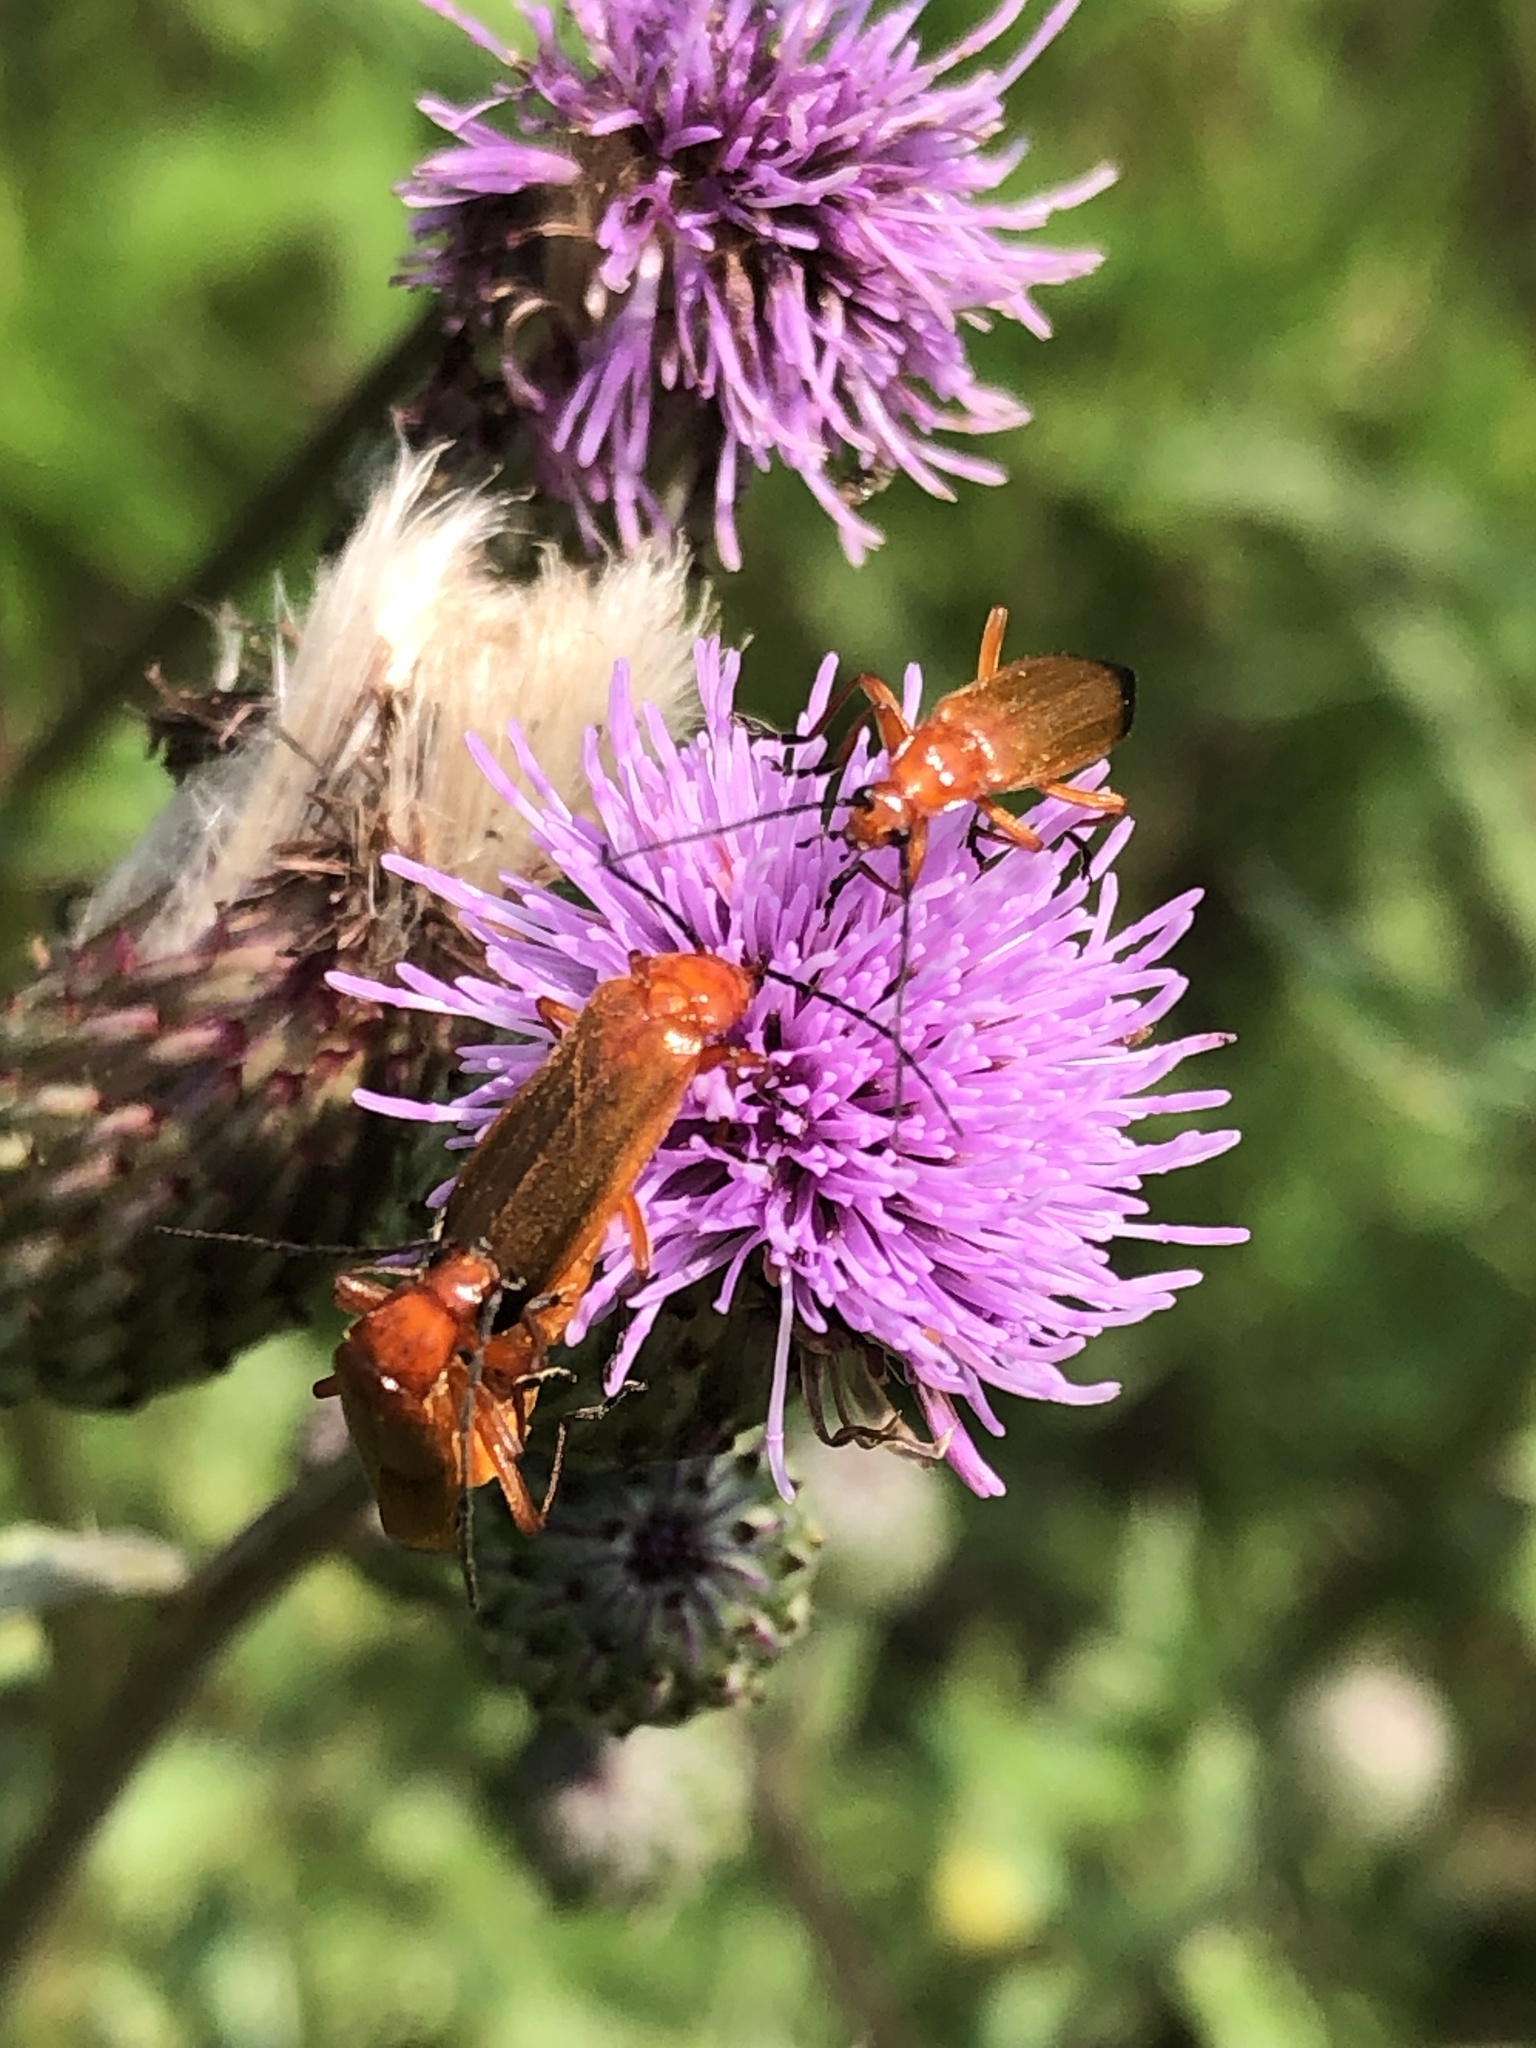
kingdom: Animalia
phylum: Arthropoda
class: Insecta
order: Coleoptera
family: Cantharidae
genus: Rhagonycha
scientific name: Rhagonycha fulva
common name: Common red soldier beetle
